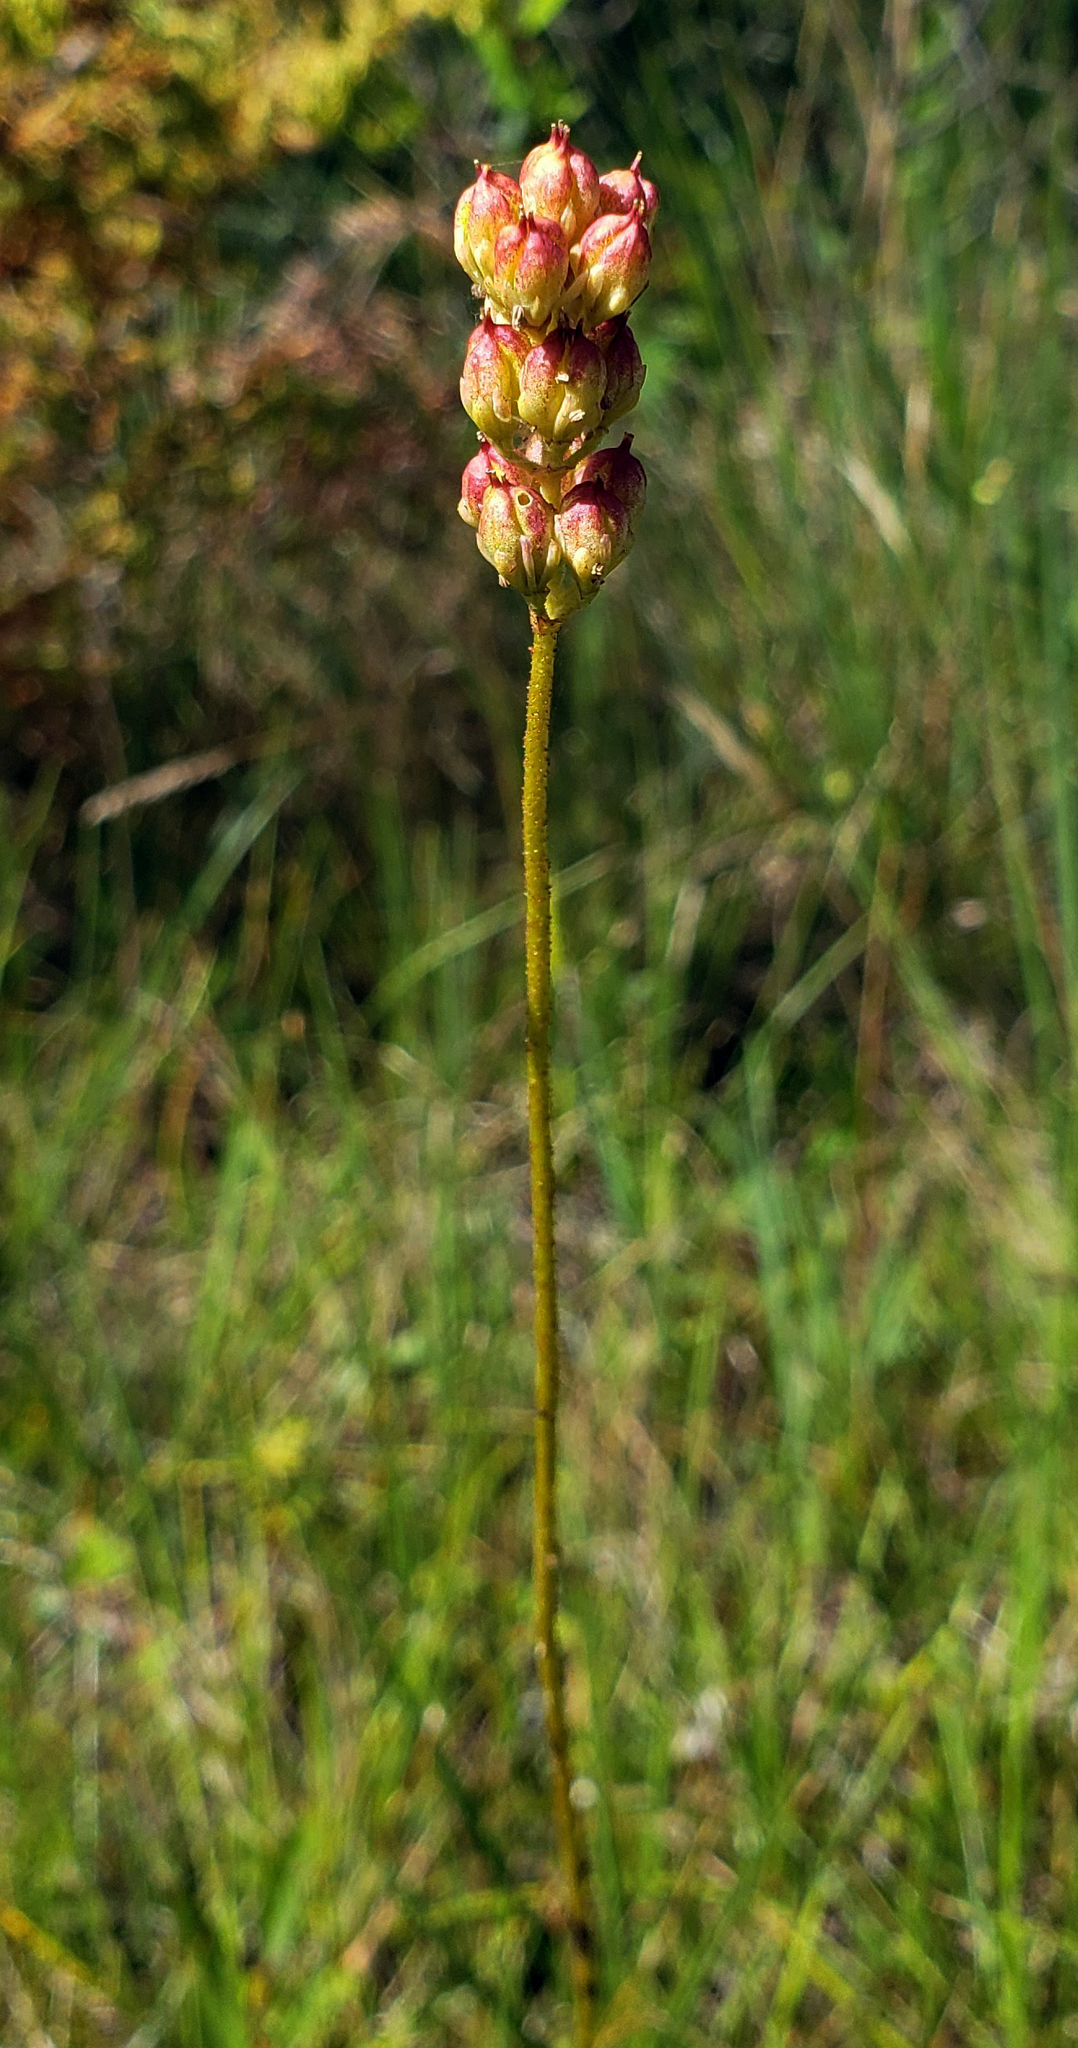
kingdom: Plantae
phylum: Tracheophyta
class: Liliopsida
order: Alismatales
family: Tofieldiaceae
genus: Triantha
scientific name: Triantha glutinosa
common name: Glutinous tofieldia
